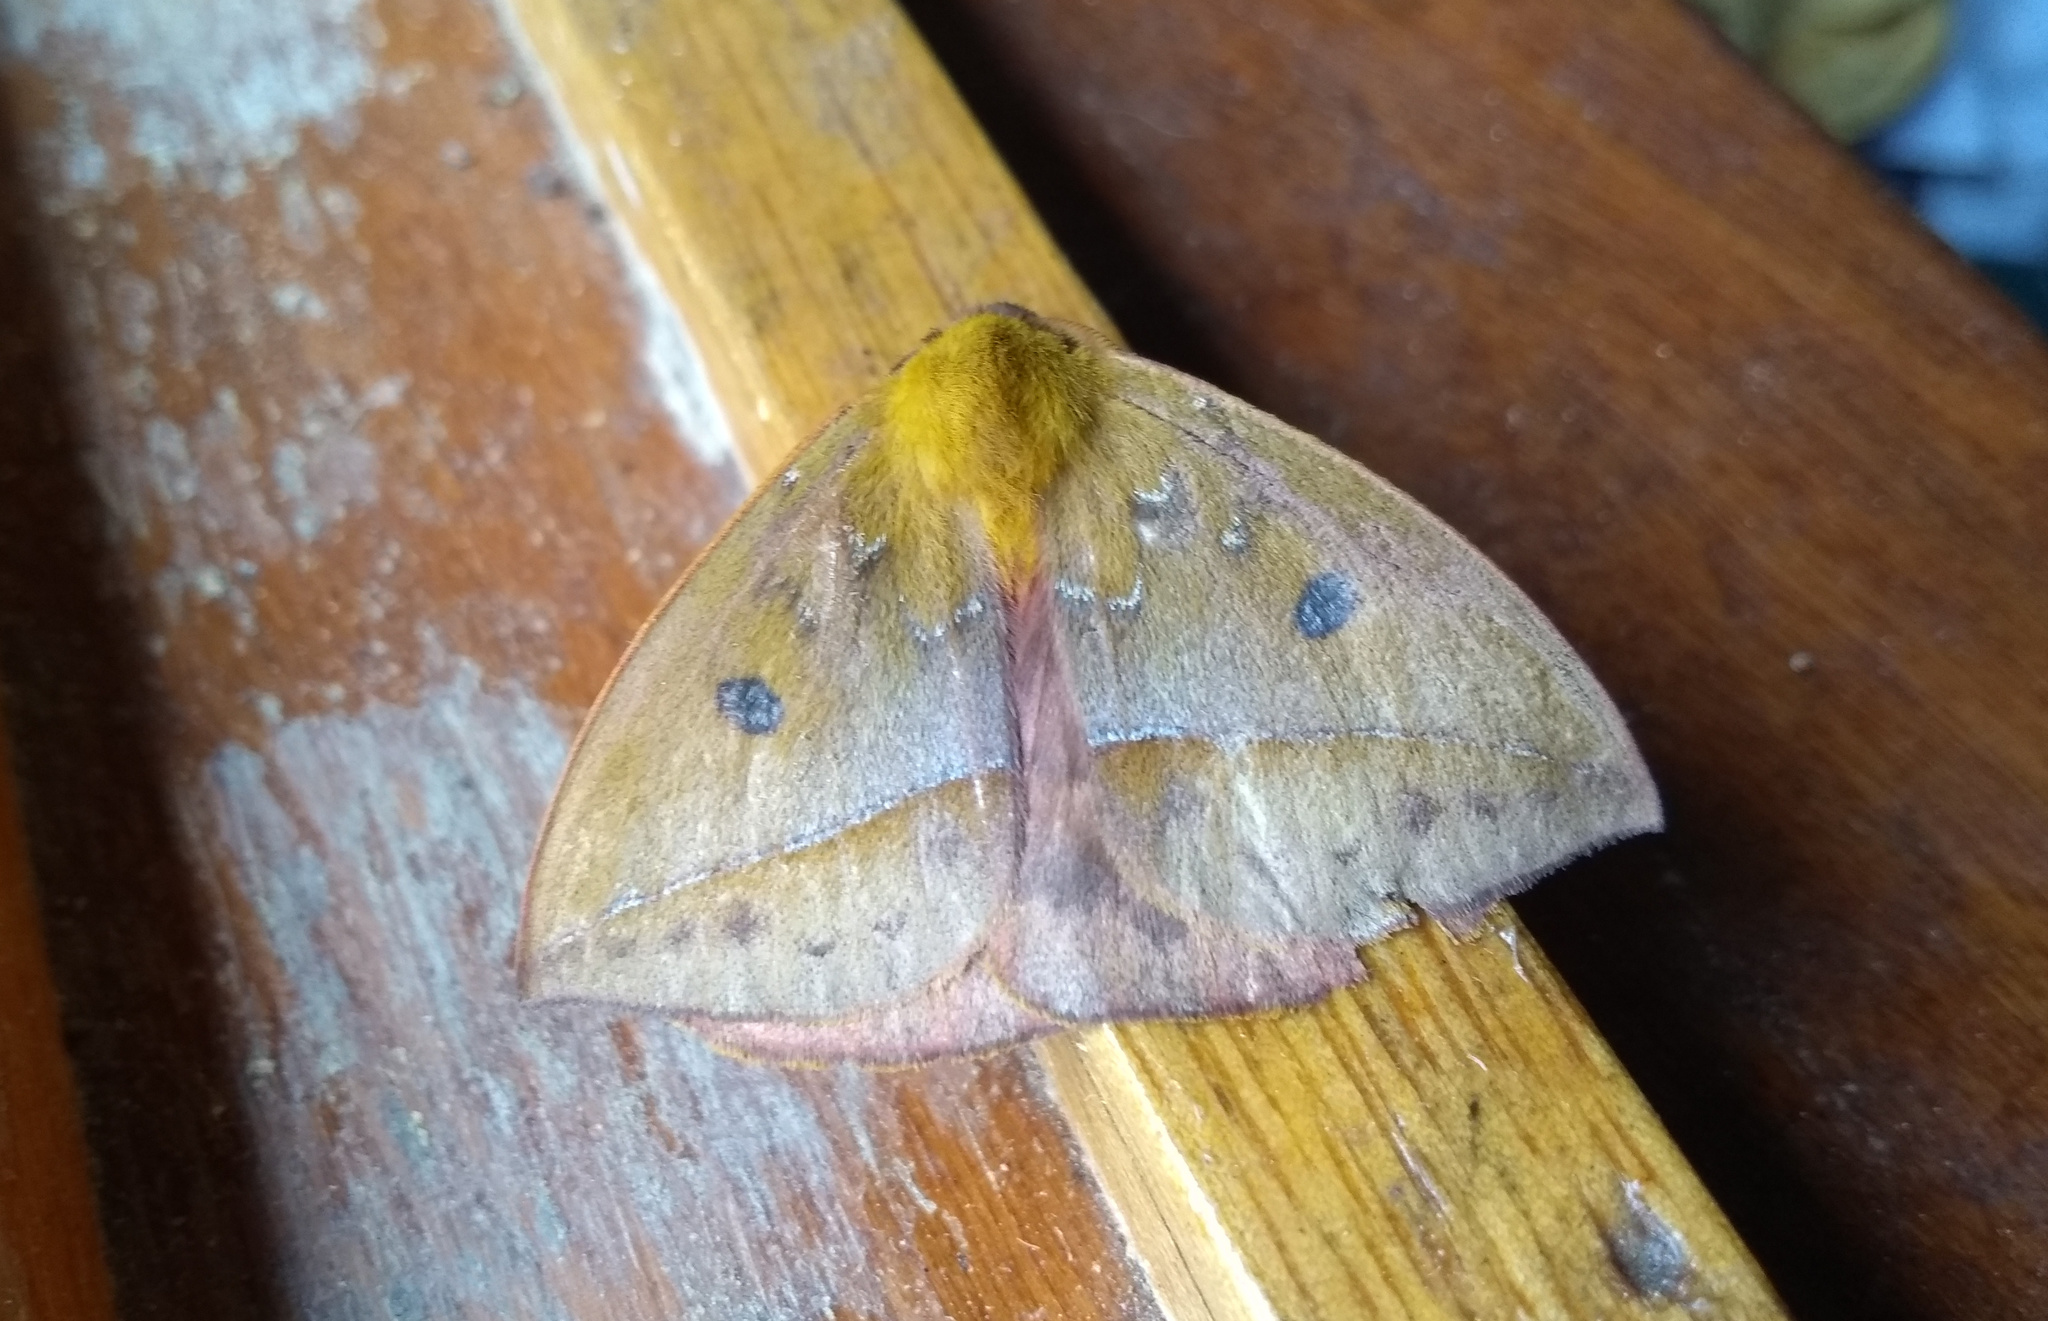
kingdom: Animalia
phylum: Arthropoda
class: Insecta
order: Lepidoptera
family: Saturniidae
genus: Catacantha
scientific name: Catacantha ferruginea
